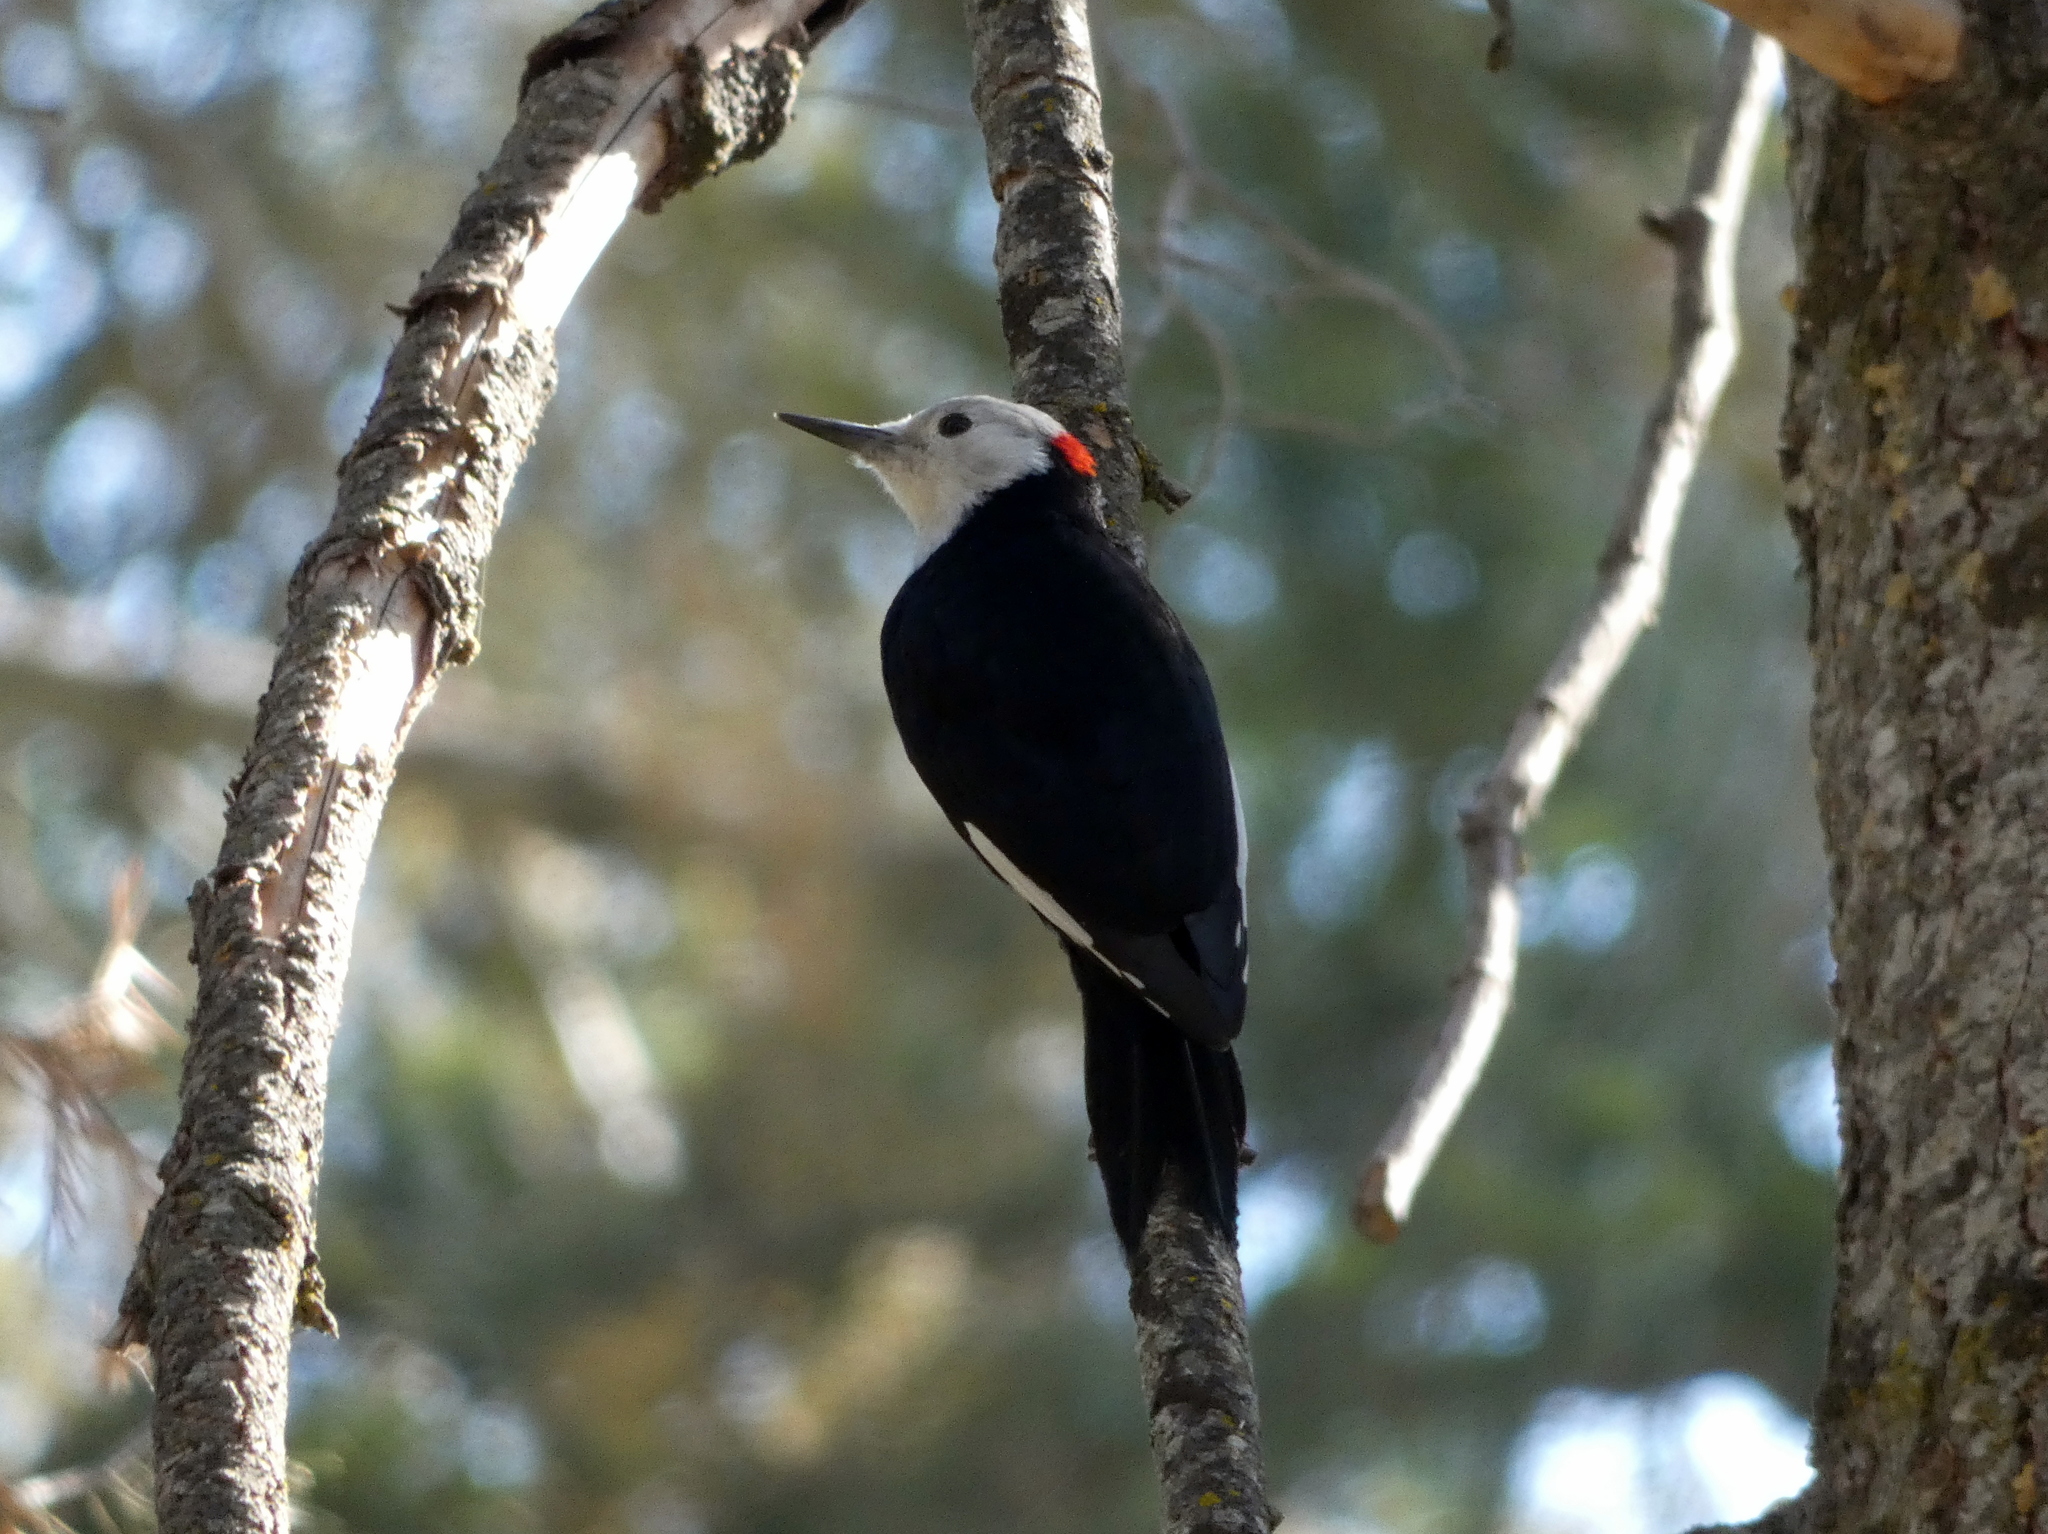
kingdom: Animalia
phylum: Chordata
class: Aves
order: Piciformes
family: Picidae
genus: Leuconotopicus
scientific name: Leuconotopicus albolarvatus
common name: White-headed woodpecker
